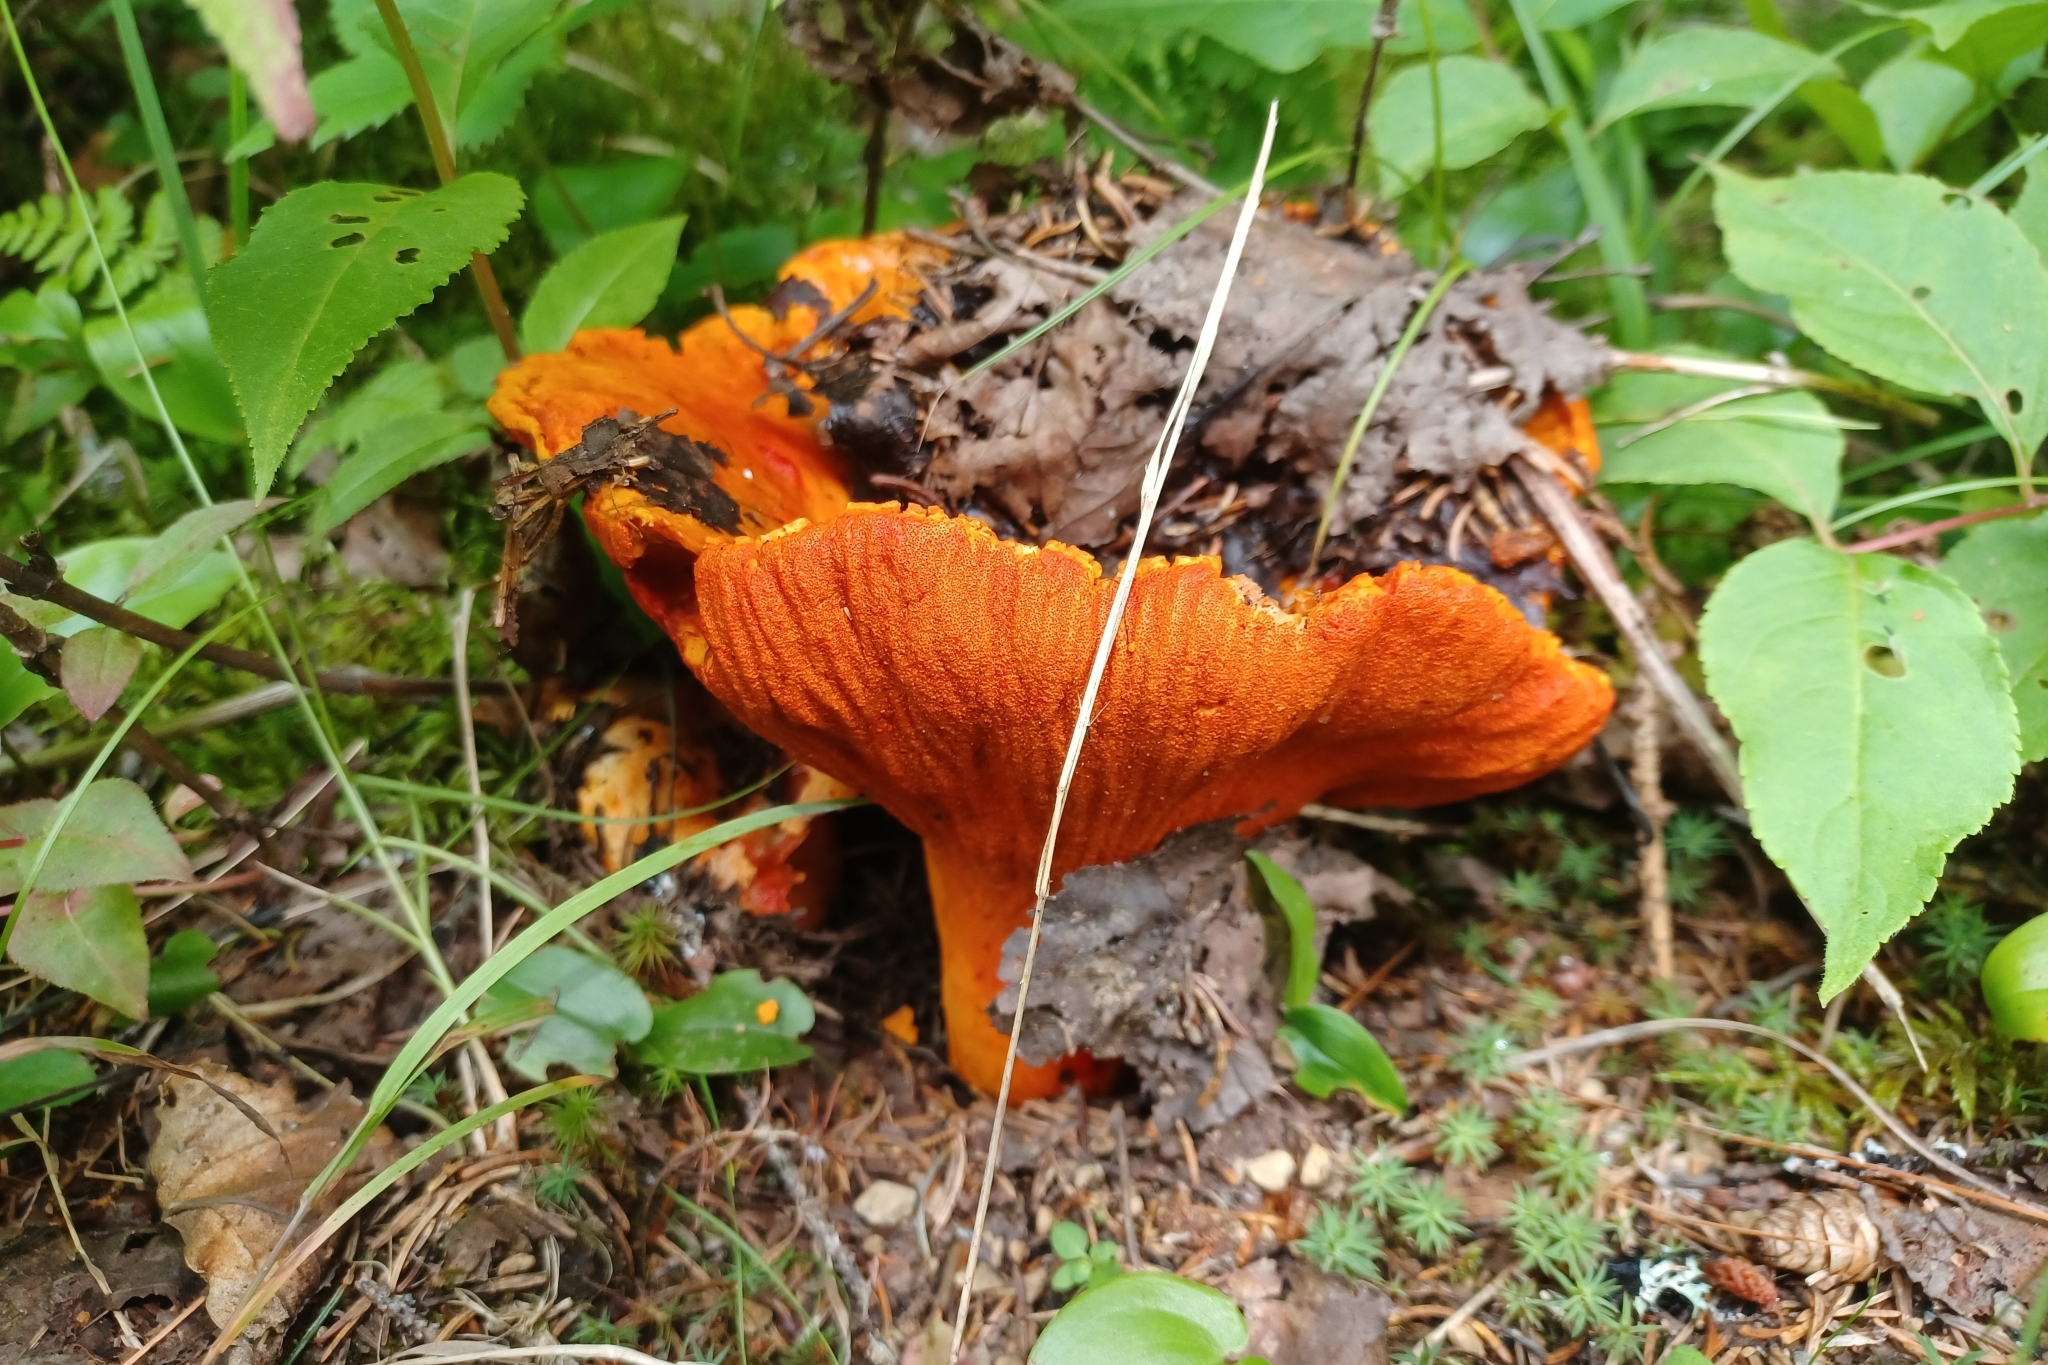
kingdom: Fungi
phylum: Ascomycota
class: Sordariomycetes
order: Hypocreales
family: Hypocreaceae
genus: Hypomyces
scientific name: Hypomyces lactifluorum
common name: Lobster mushroom
